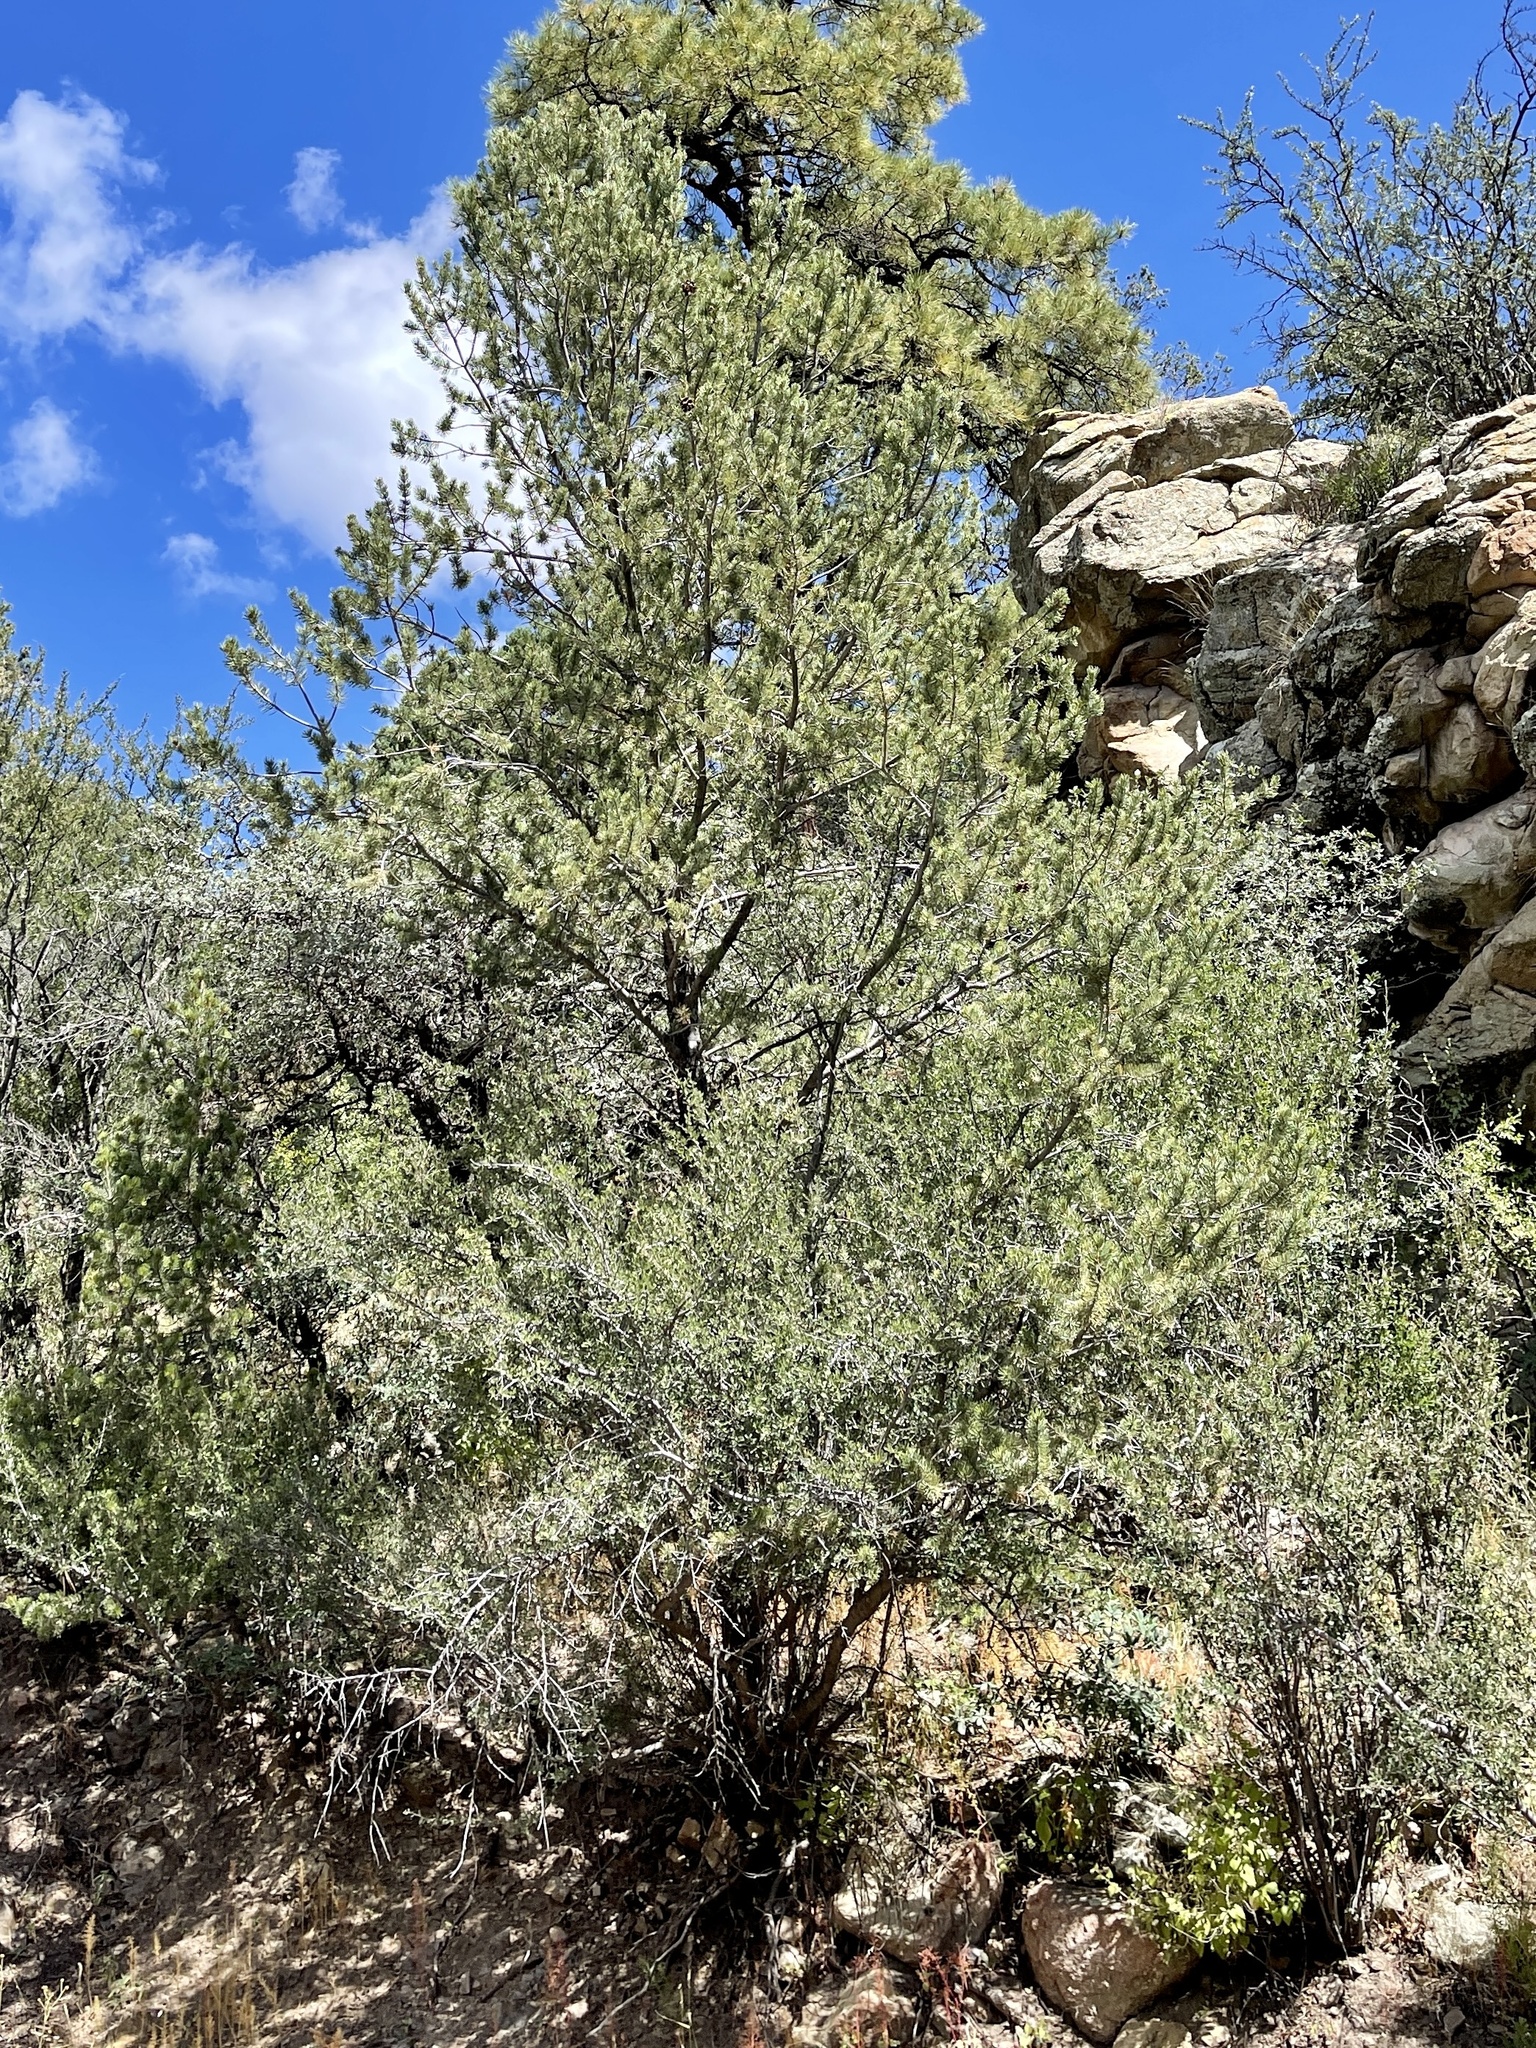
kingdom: Plantae
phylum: Tracheophyta
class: Pinopsida
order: Pinales
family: Pinaceae
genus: Pinus
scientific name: Pinus edulis
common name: Colorado pinyon
